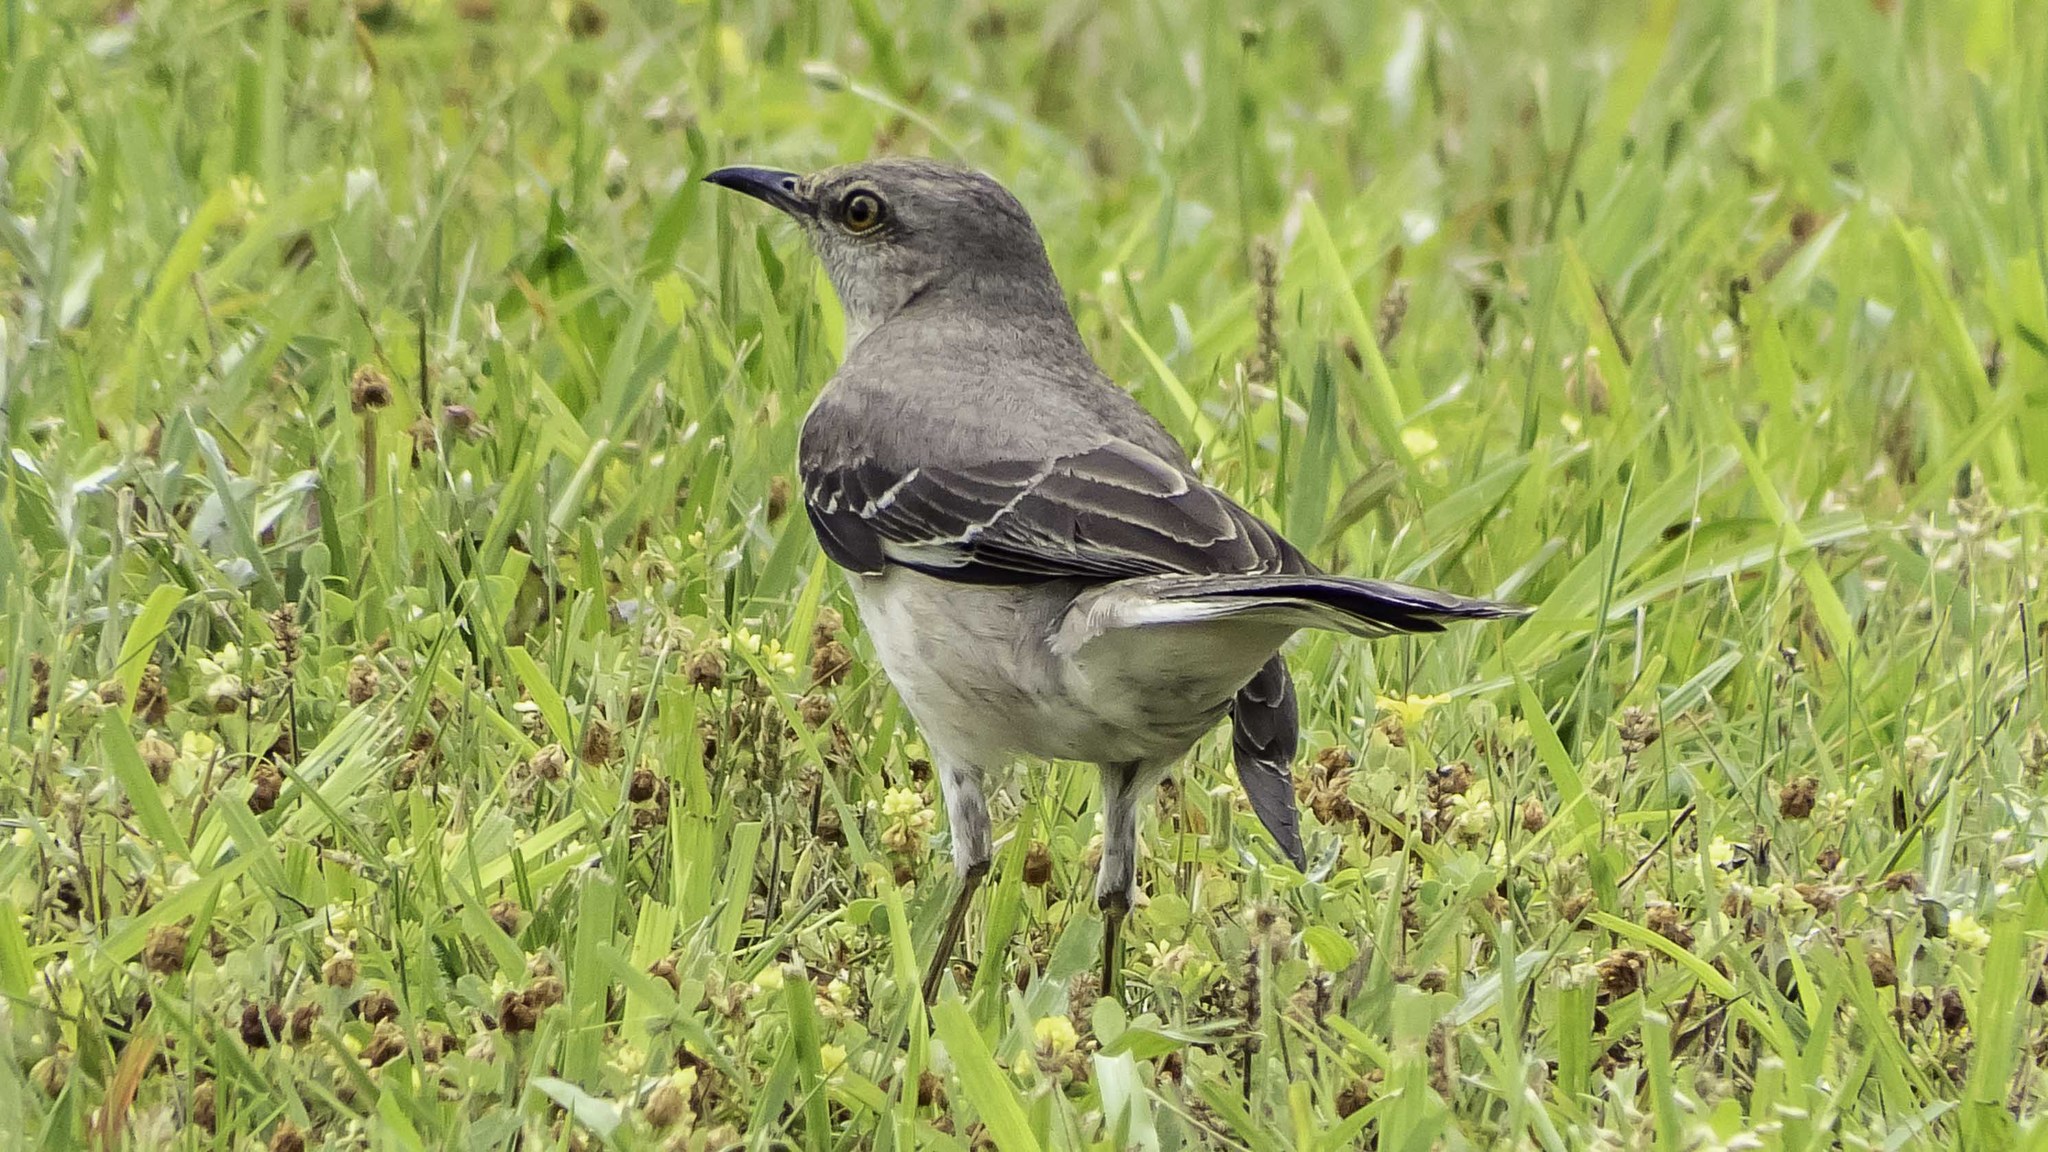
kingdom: Animalia
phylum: Chordata
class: Aves
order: Passeriformes
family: Mimidae
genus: Mimus
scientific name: Mimus polyglottos
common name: Northern mockingbird
